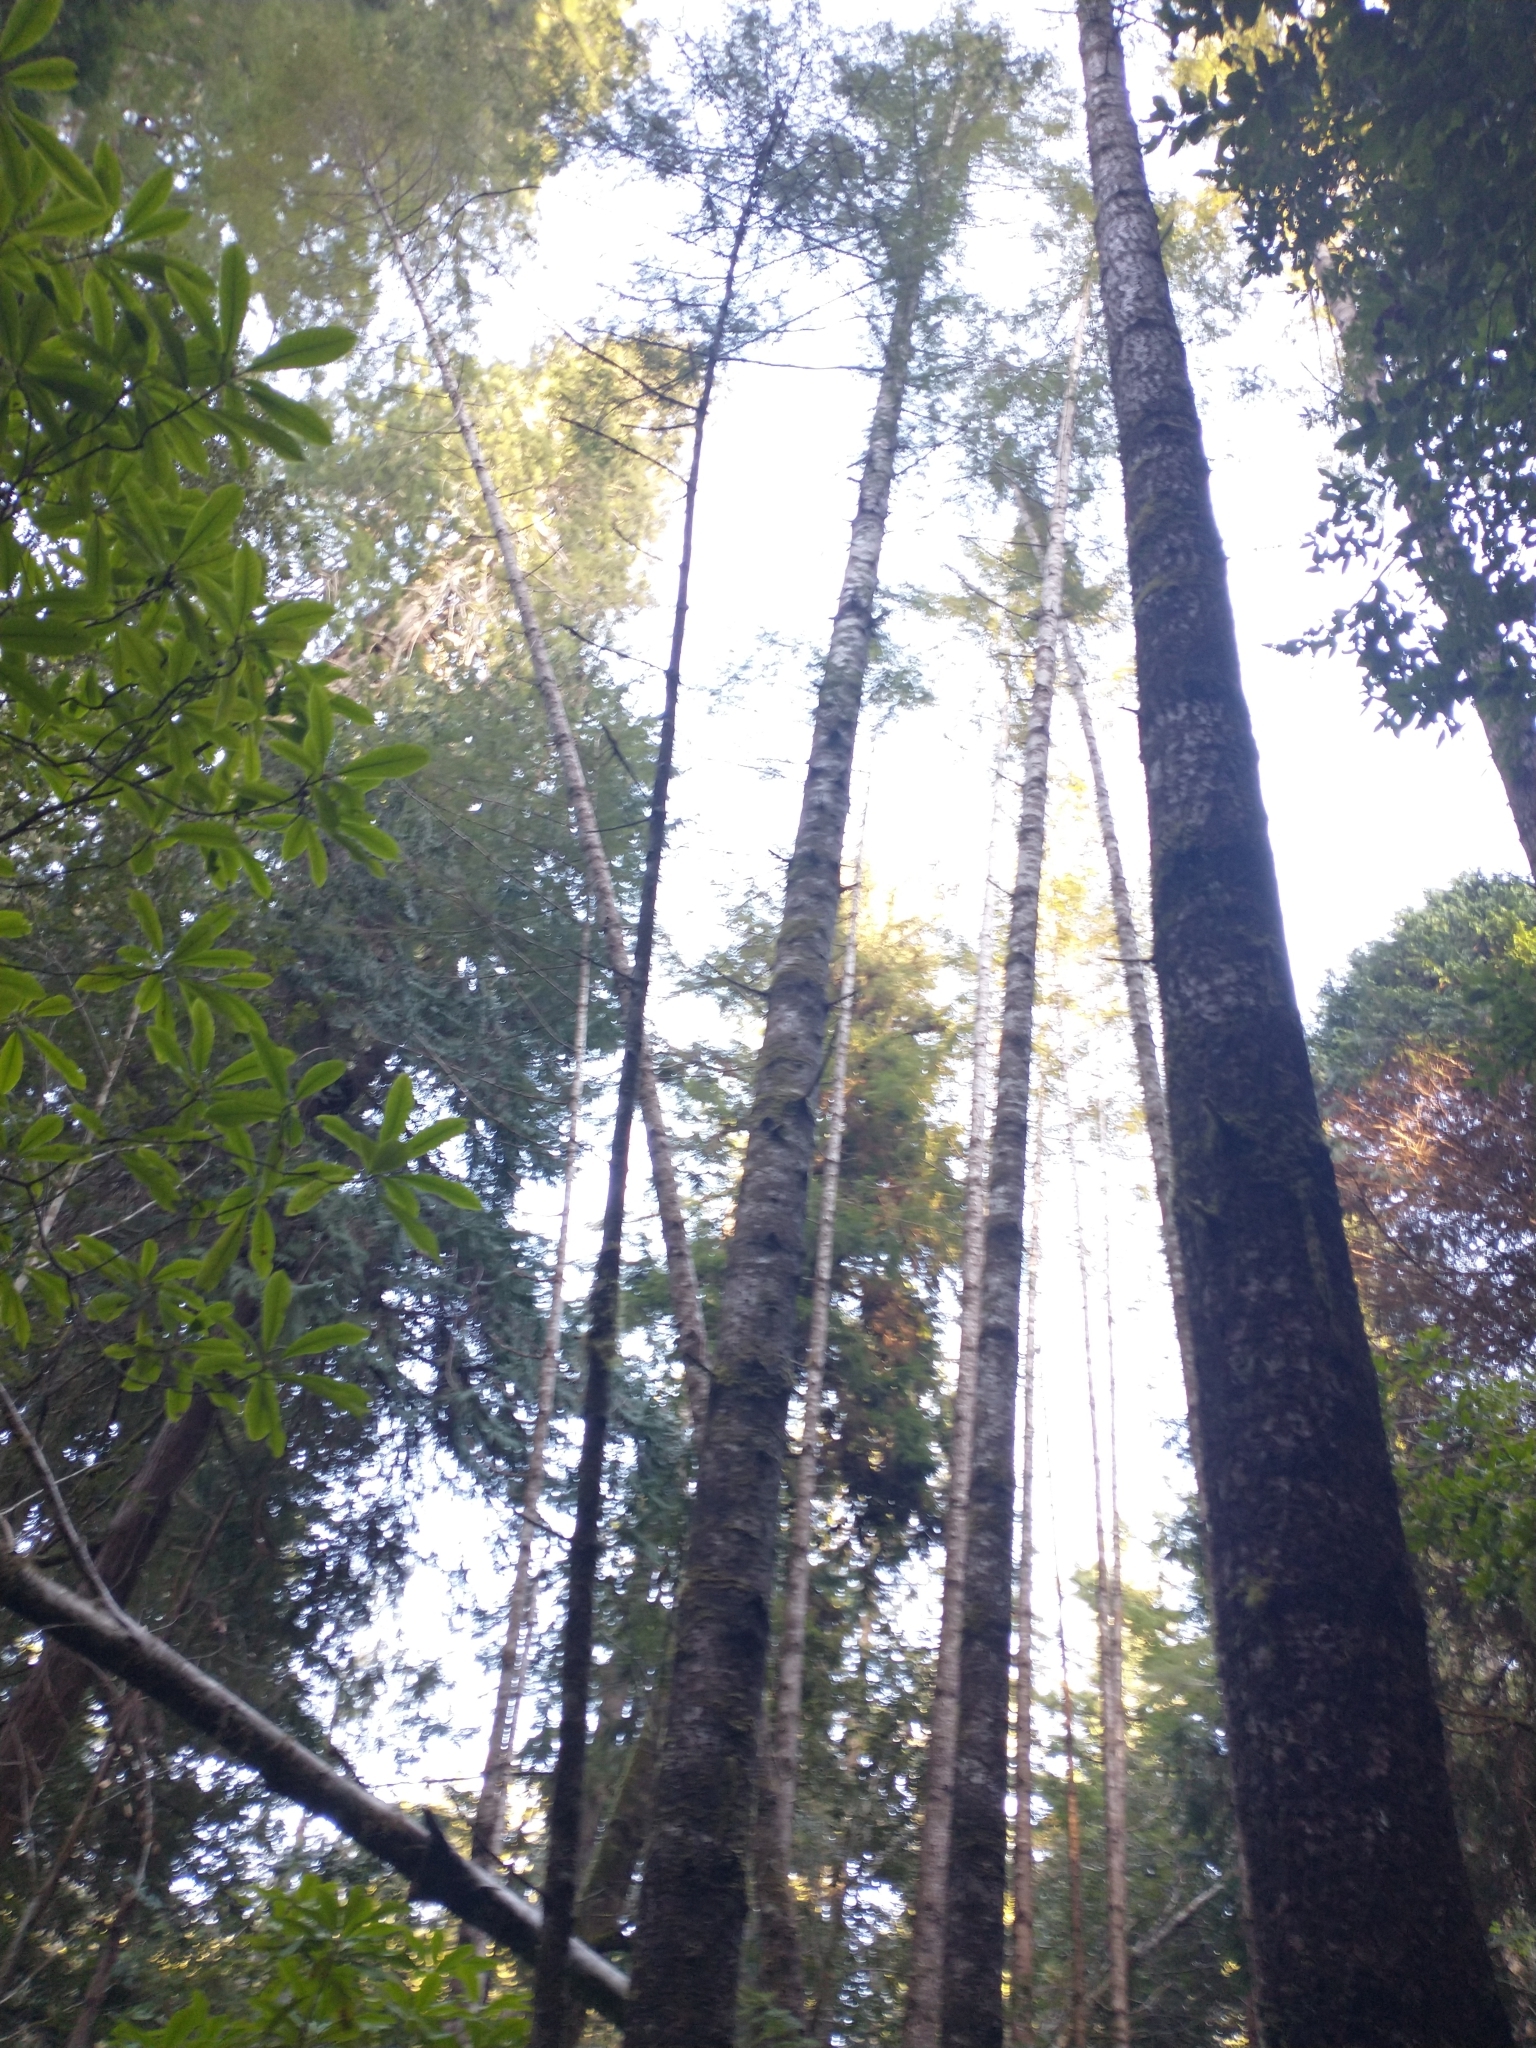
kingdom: Plantae
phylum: Tracheophyta
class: Pinopsida
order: Pinales
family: Pinaceae
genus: Pseudotsuga
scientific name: Pseudotsuga menziesii
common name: Douglas fir
